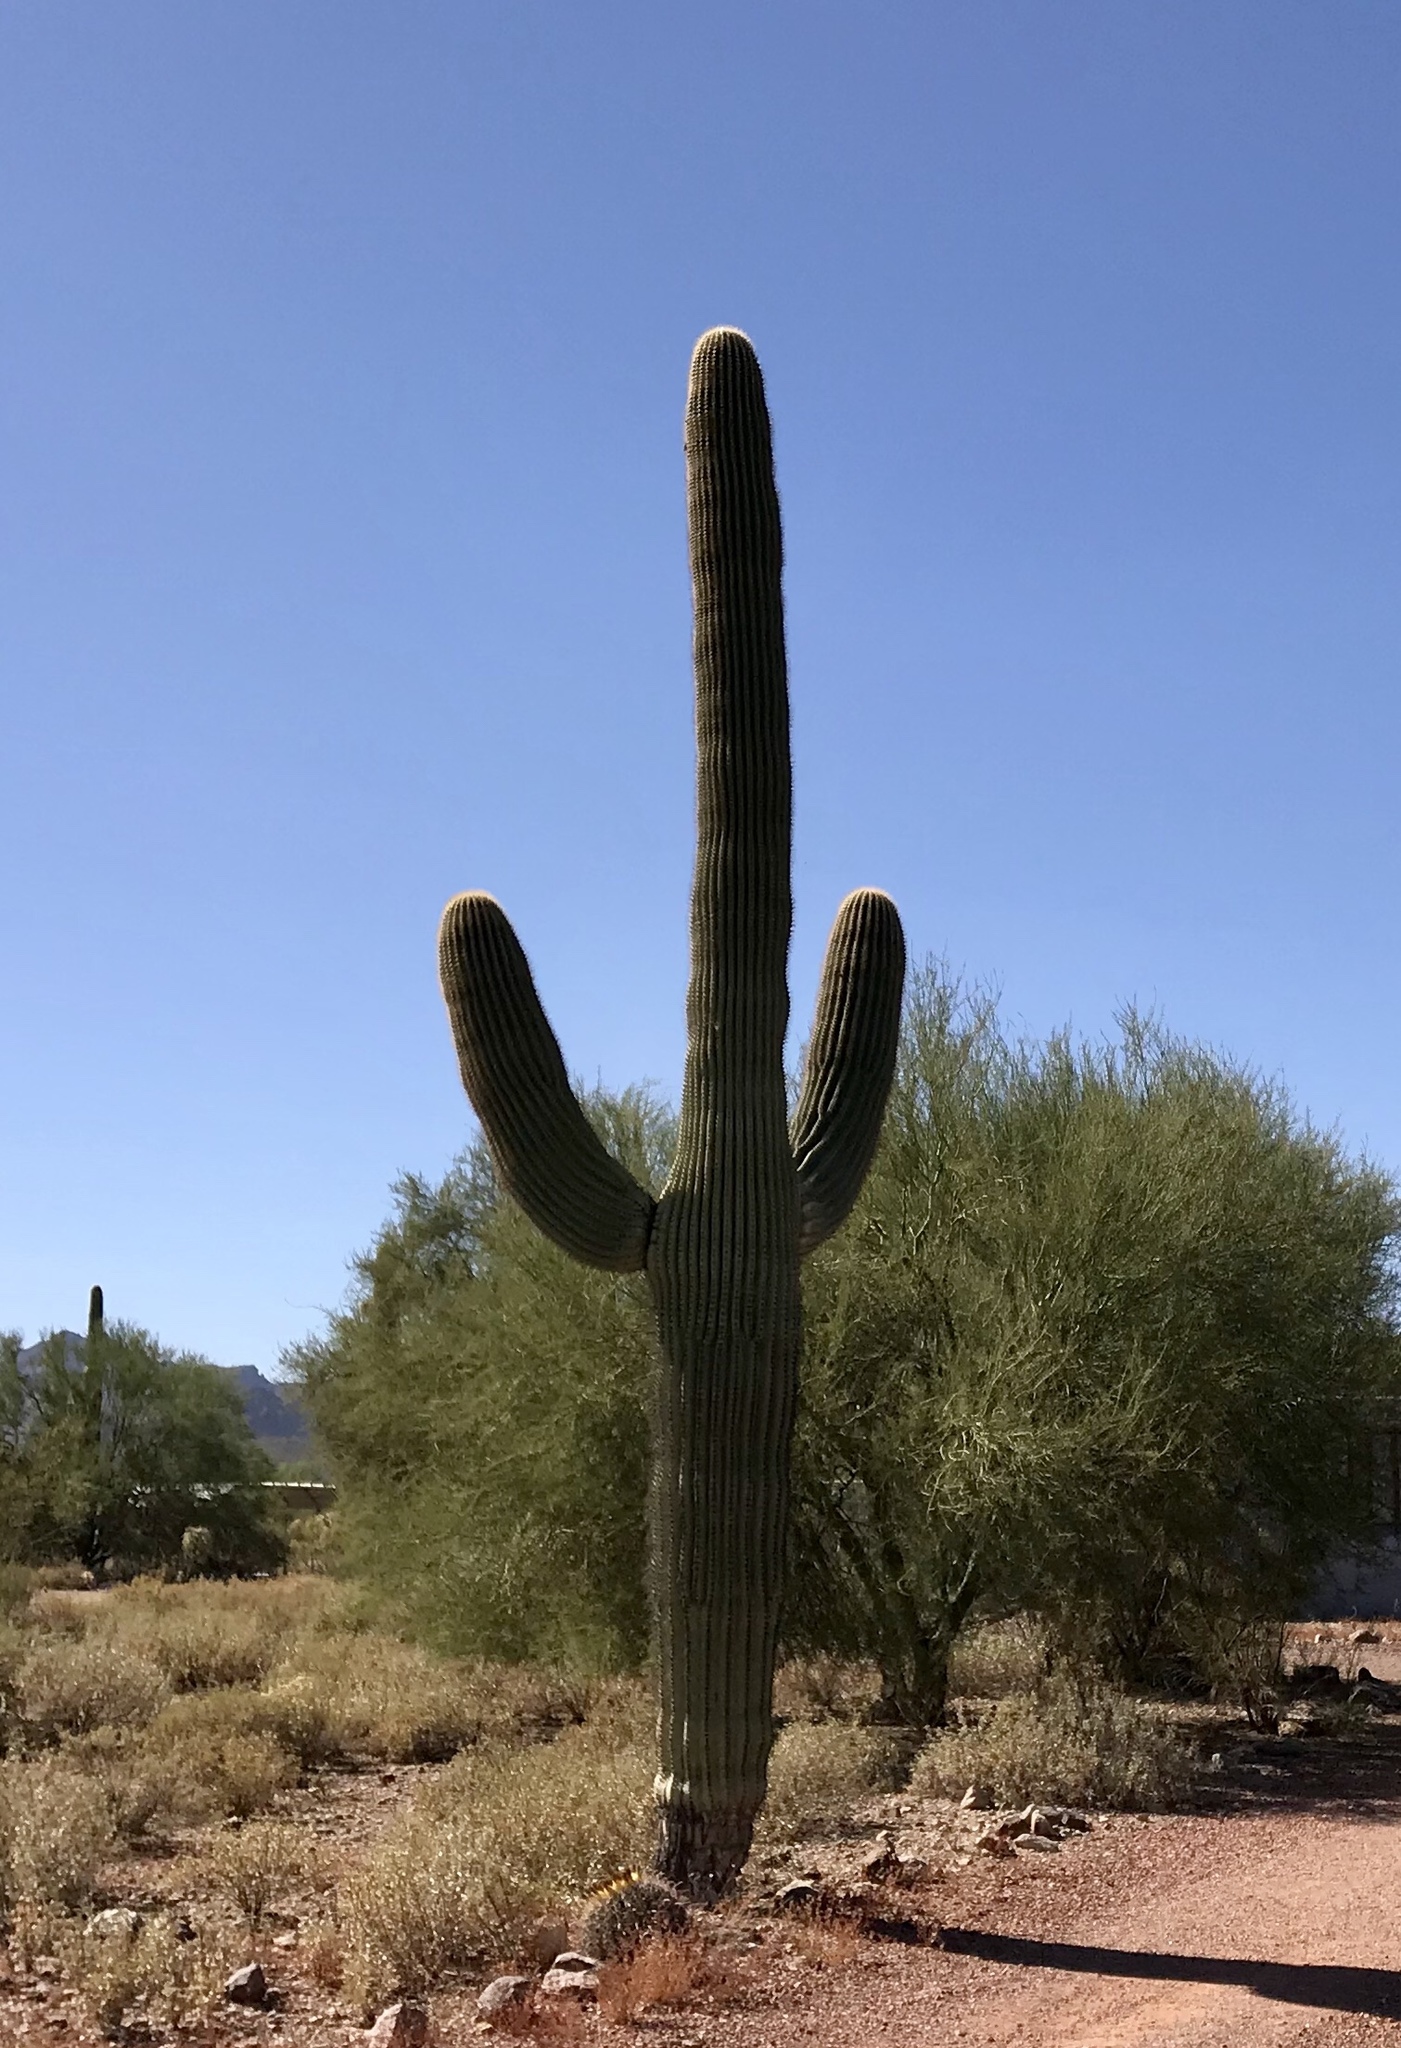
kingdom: Plantae
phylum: Tracheophyta
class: Magnoliopsida
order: Caryophyllales
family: Cactaceae
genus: Carnegiea
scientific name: Carnegiea gigantea
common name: Saguaro
